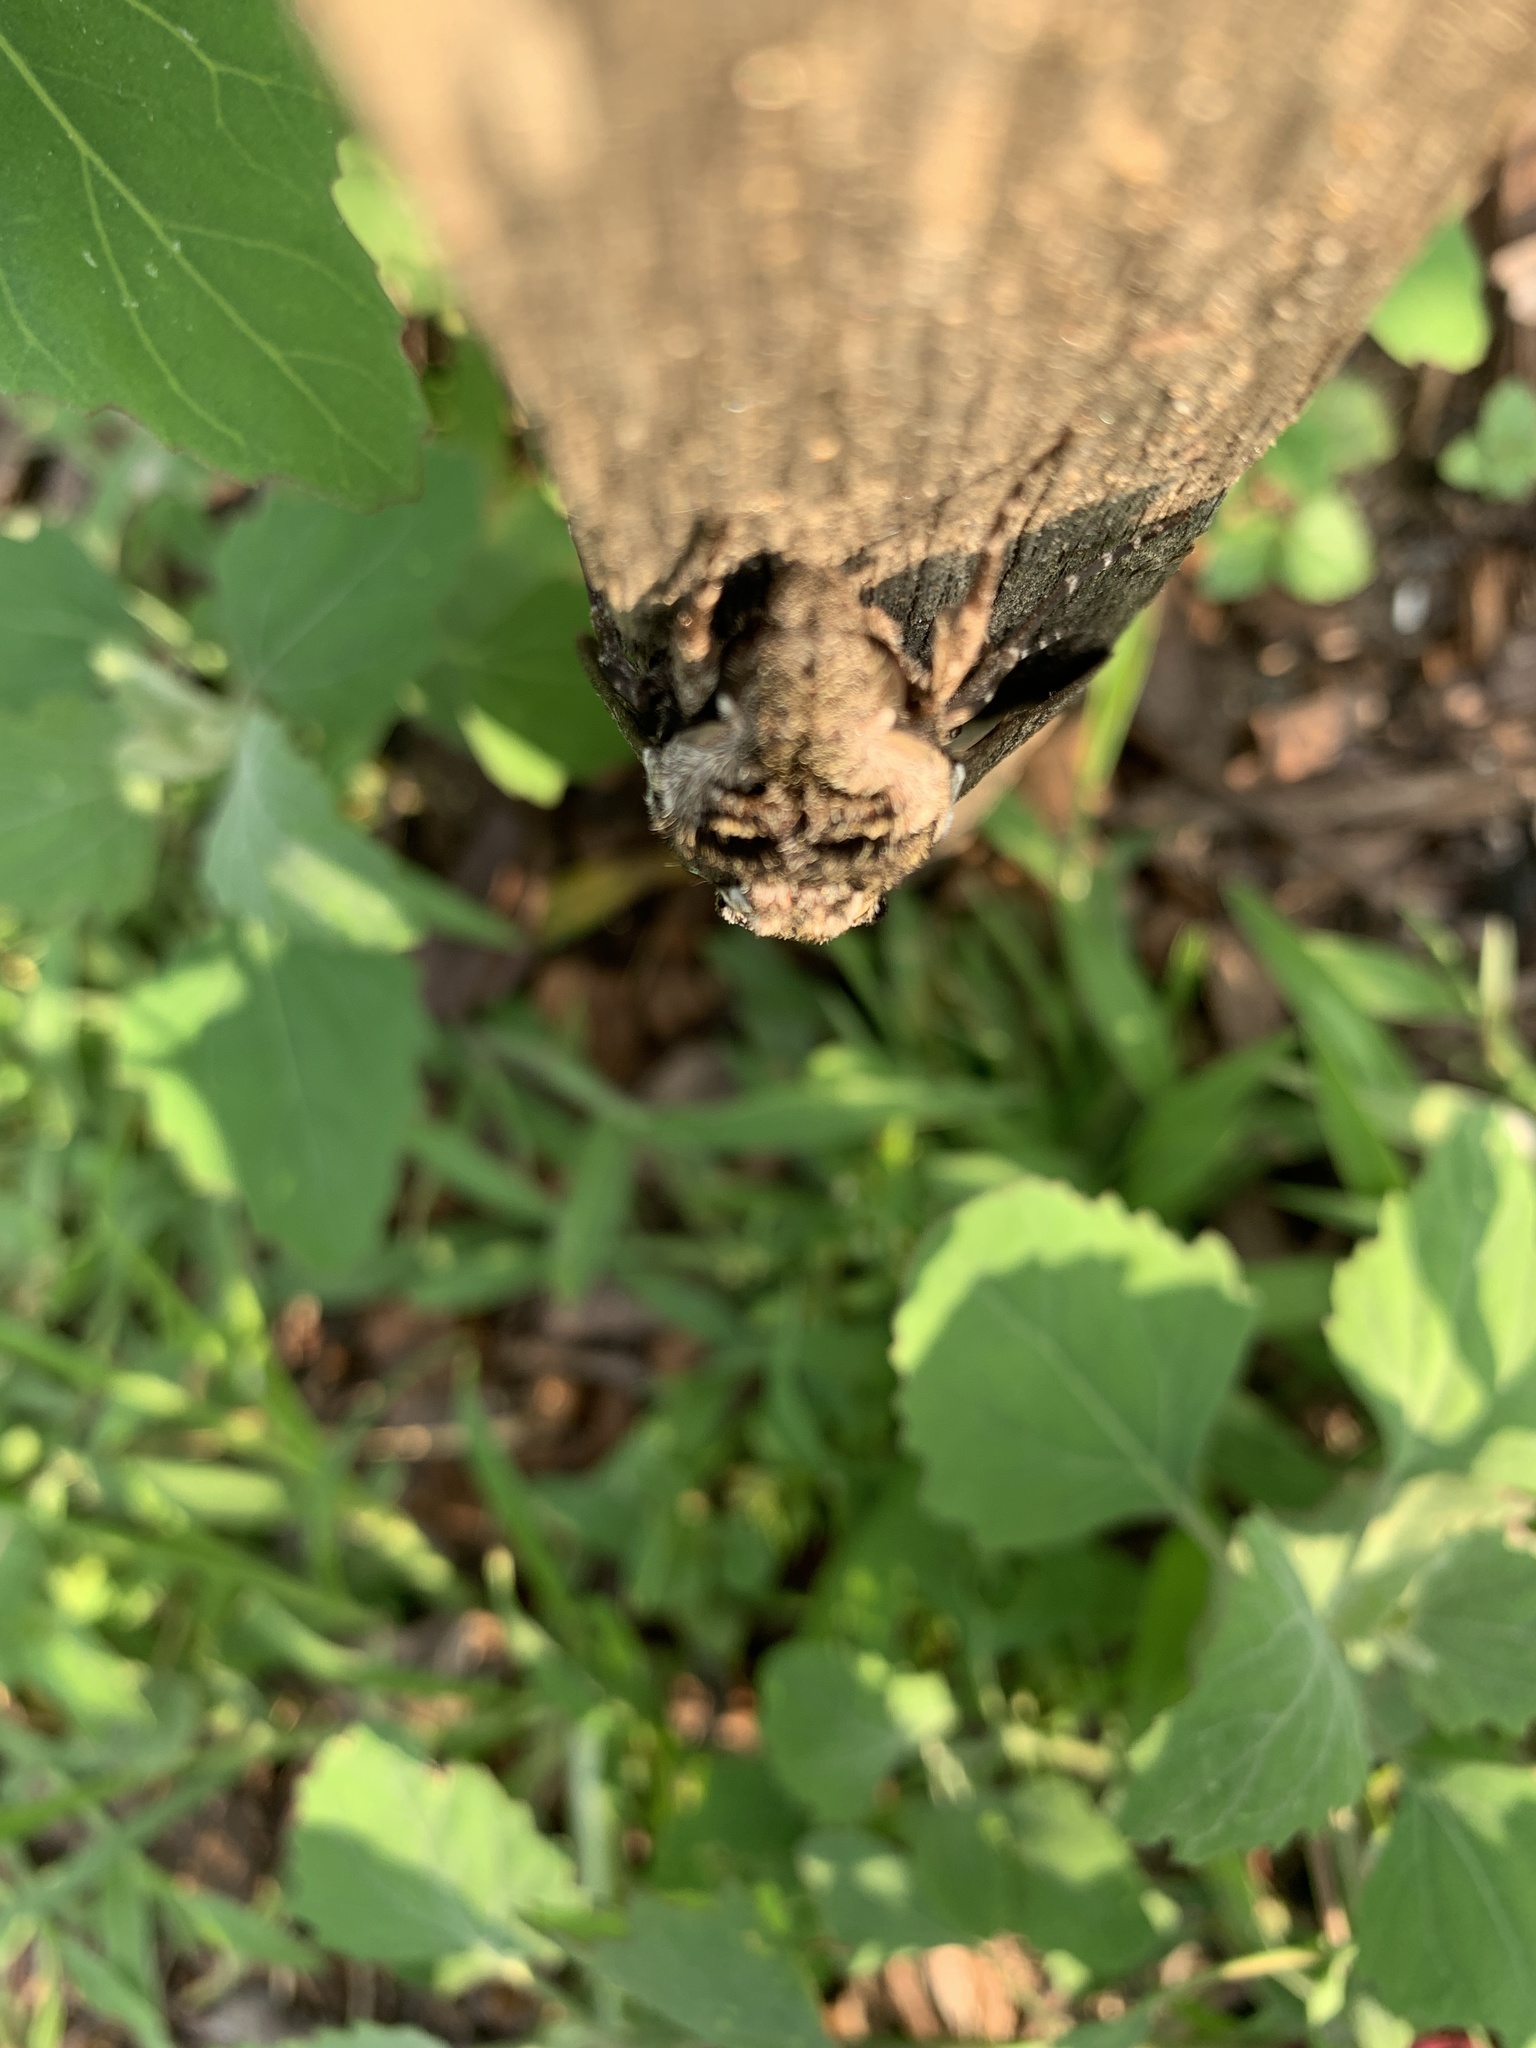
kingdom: Animalia
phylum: Arthropoda
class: Insecta
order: Lepidoptera
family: Sphingidae
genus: Manduca
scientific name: Manduca sexta
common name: Carolina sphinx
